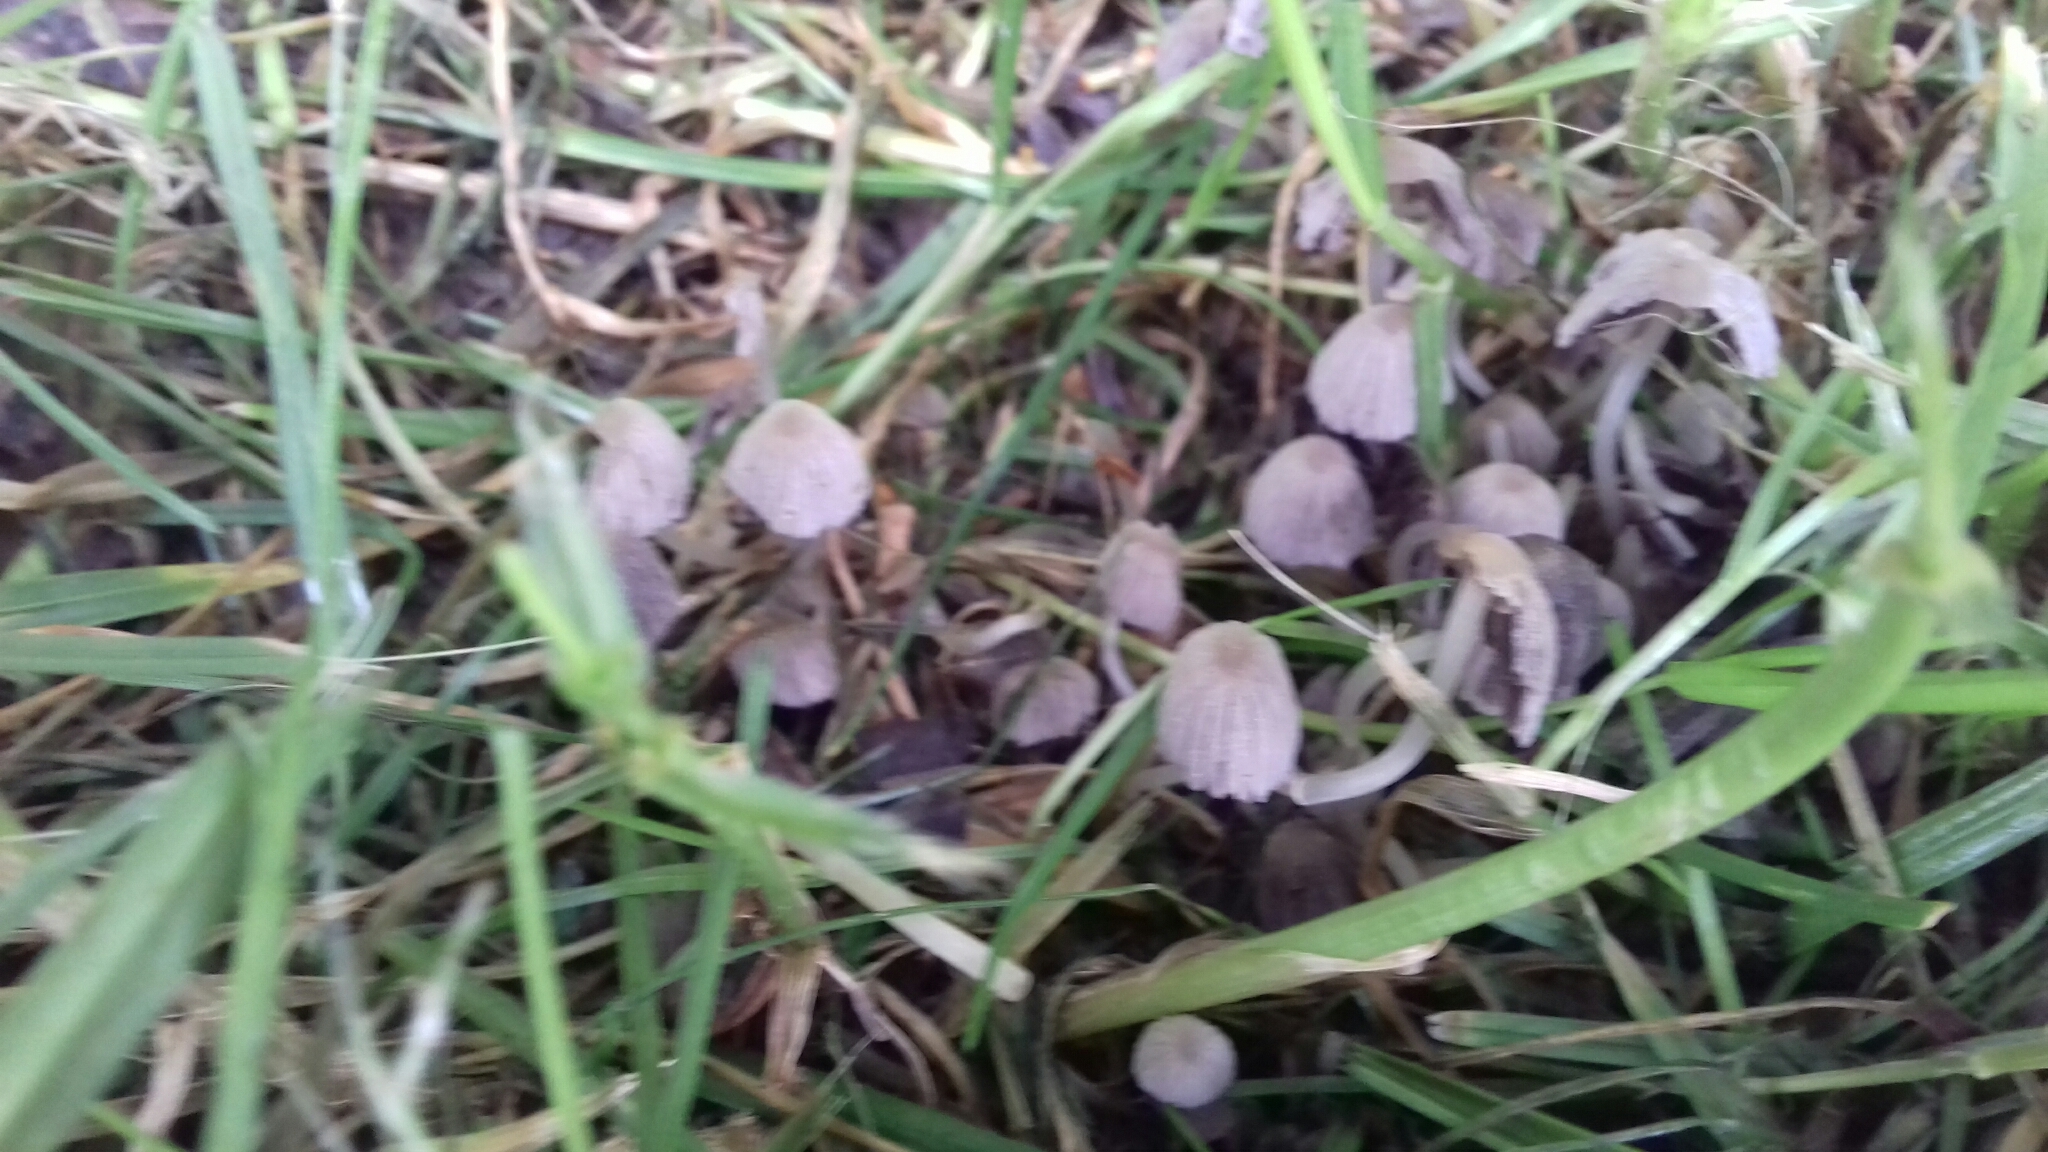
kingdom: Fungi
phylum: Basidiomycota
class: Agaricomycetes
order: Agaricales
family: Psathyrellaceae
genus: Coprinellus
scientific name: Coprinellus disseminatus
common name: Fairies' bonnets
